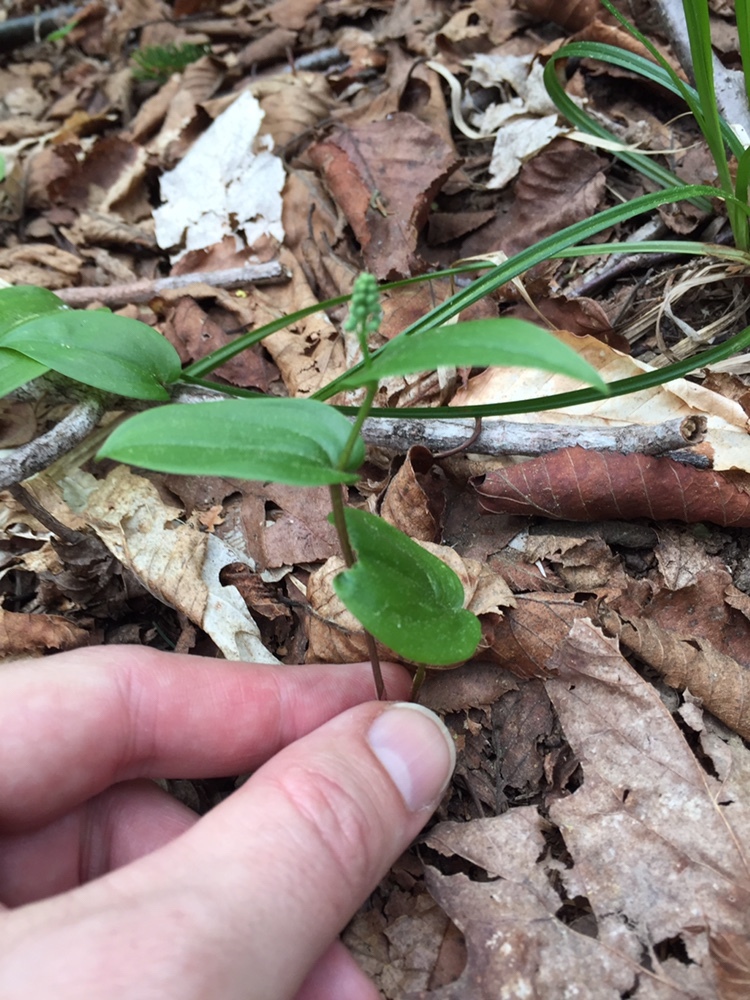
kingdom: Plantae
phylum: Tracheophyta
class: Liliopsida
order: Asparagales
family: Asparagaceae
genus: Maianthemum
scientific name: Maianthemum canadense
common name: False lily-of-the-valley
